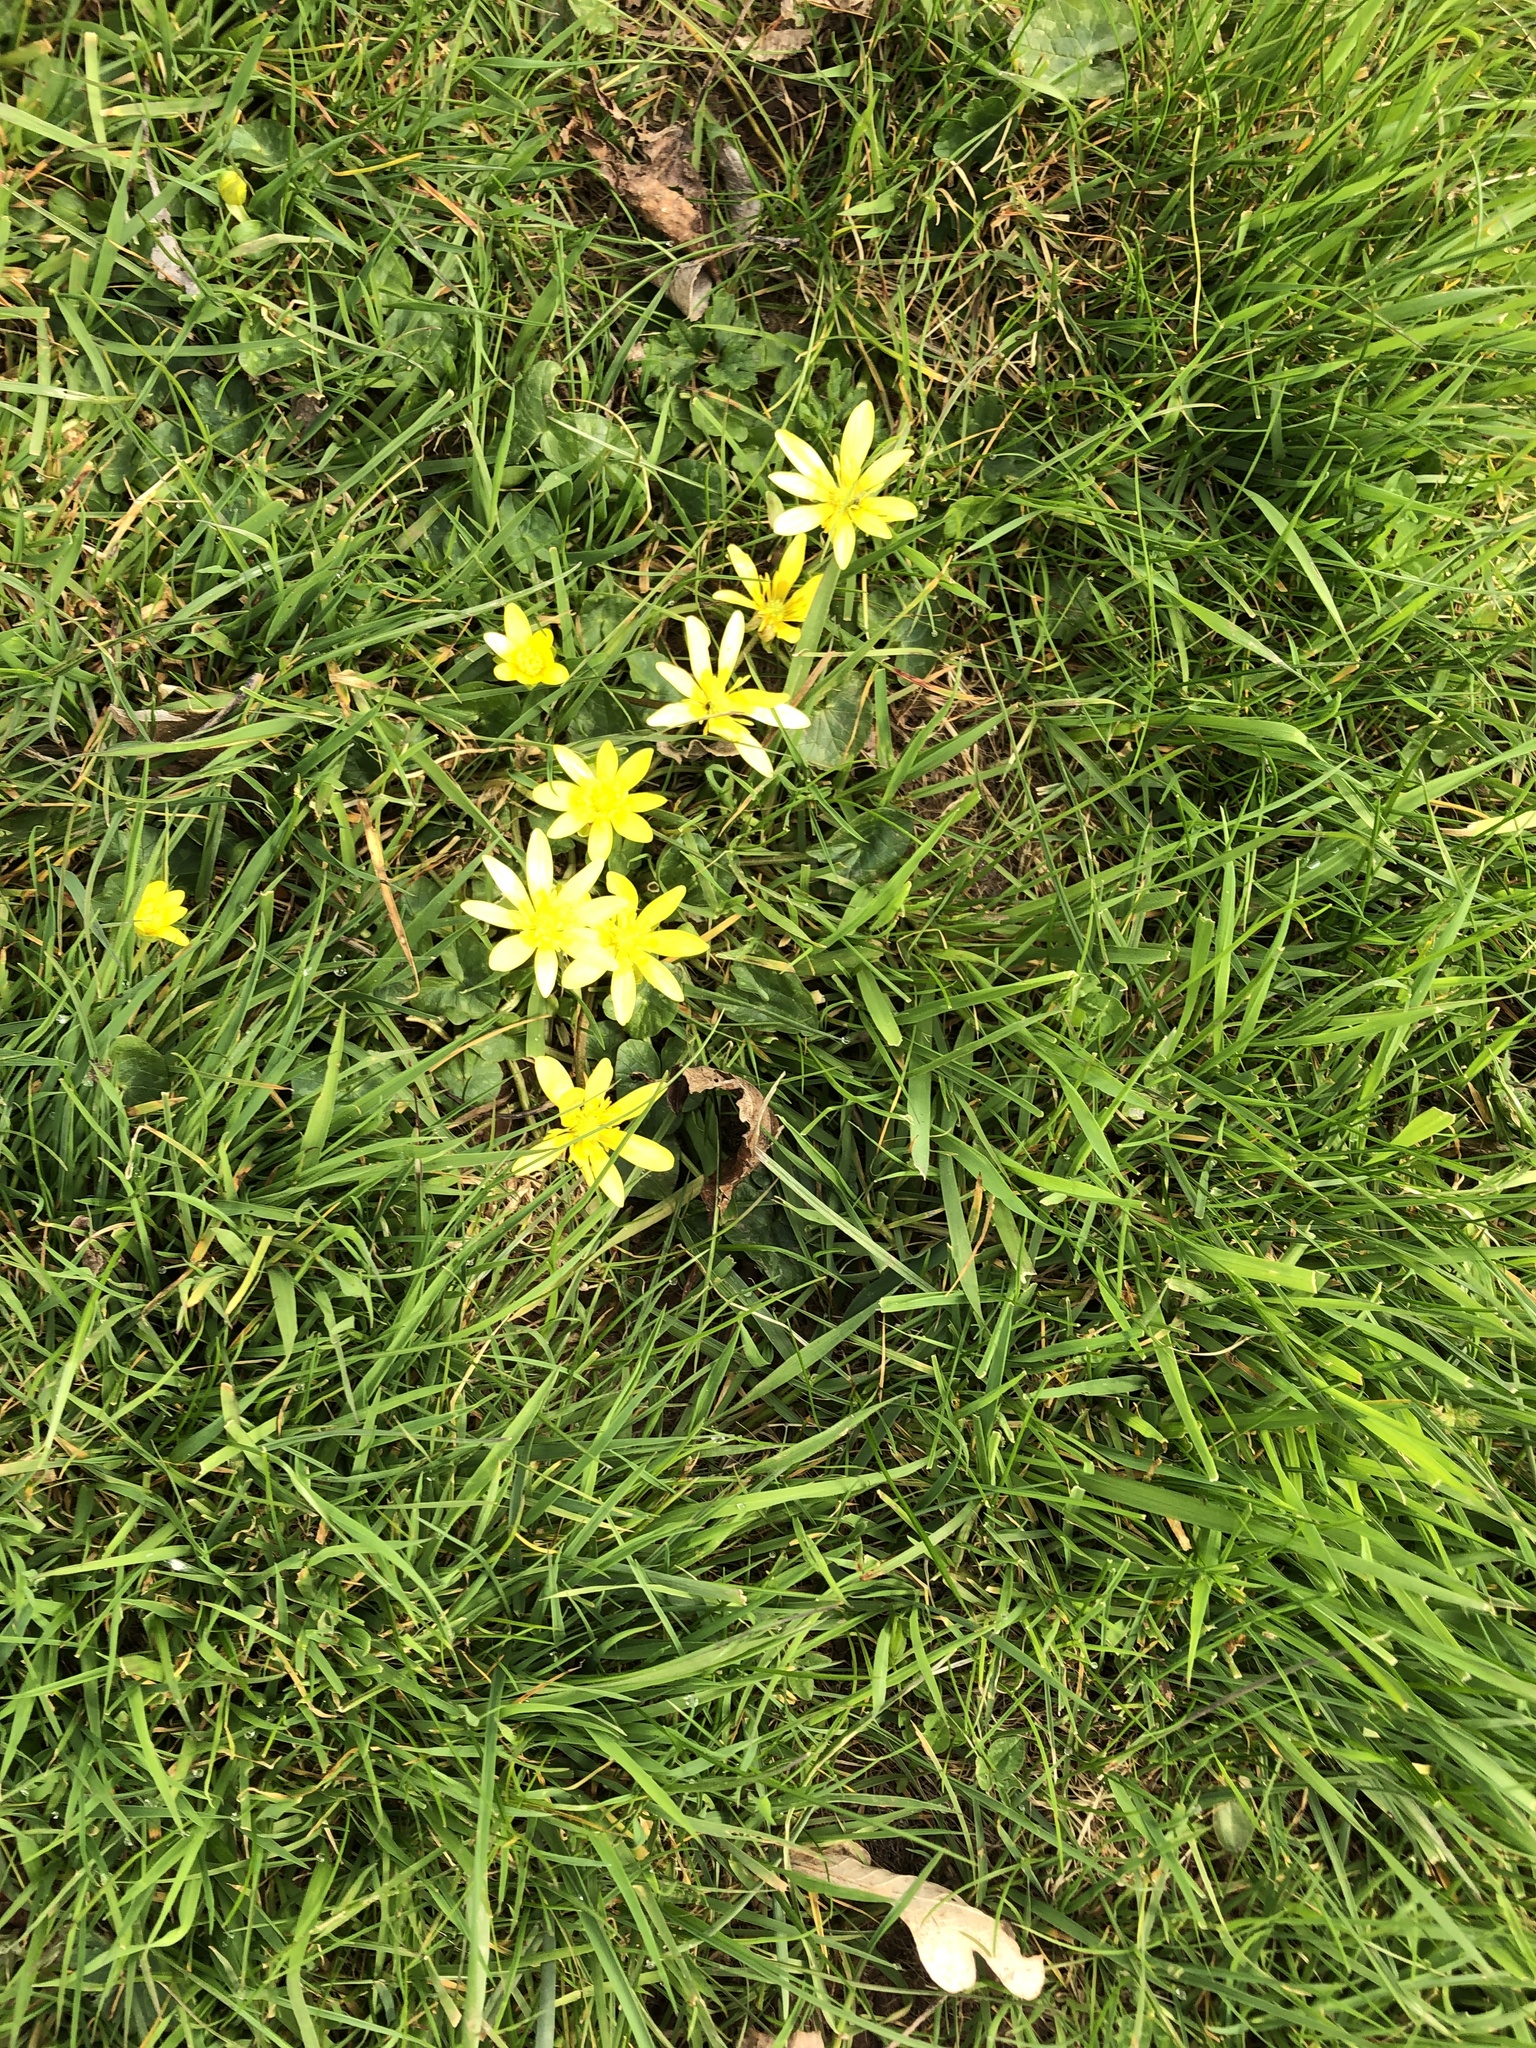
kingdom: Plantae
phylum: Tracheophyta
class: Magnoliopsida
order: Ranunculales
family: Ranunculaceae
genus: Ficaria
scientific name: Ficaria verna
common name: Lesser celandine
